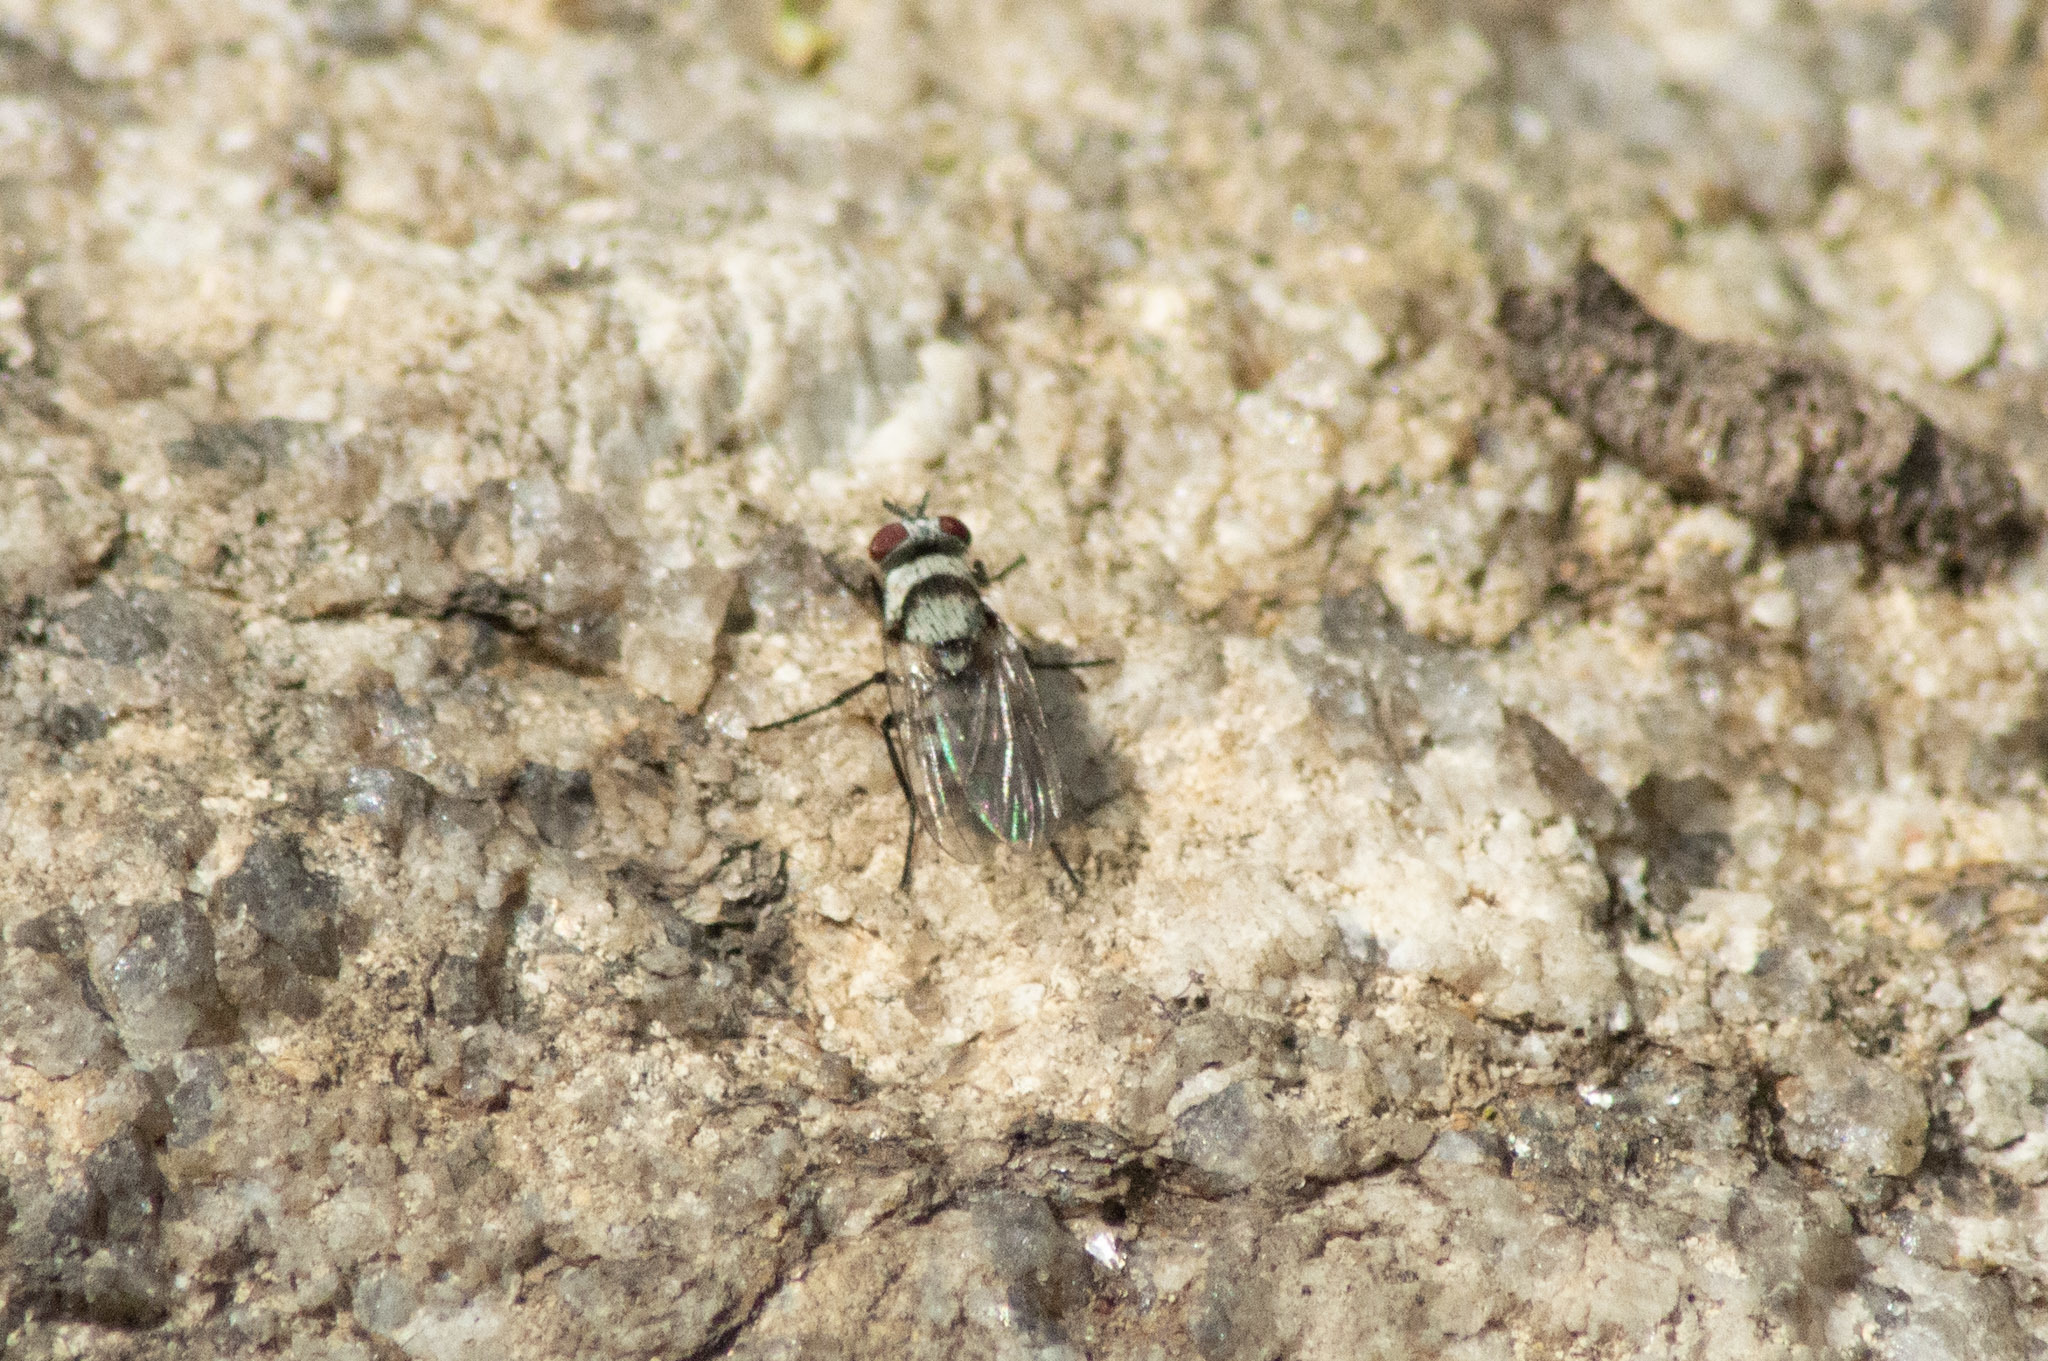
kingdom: Animalia
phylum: Arthropoda
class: Insecta
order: Diptera
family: Anthomyiidae
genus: Anthomyia
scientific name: Anthomyia illocata
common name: Fly
